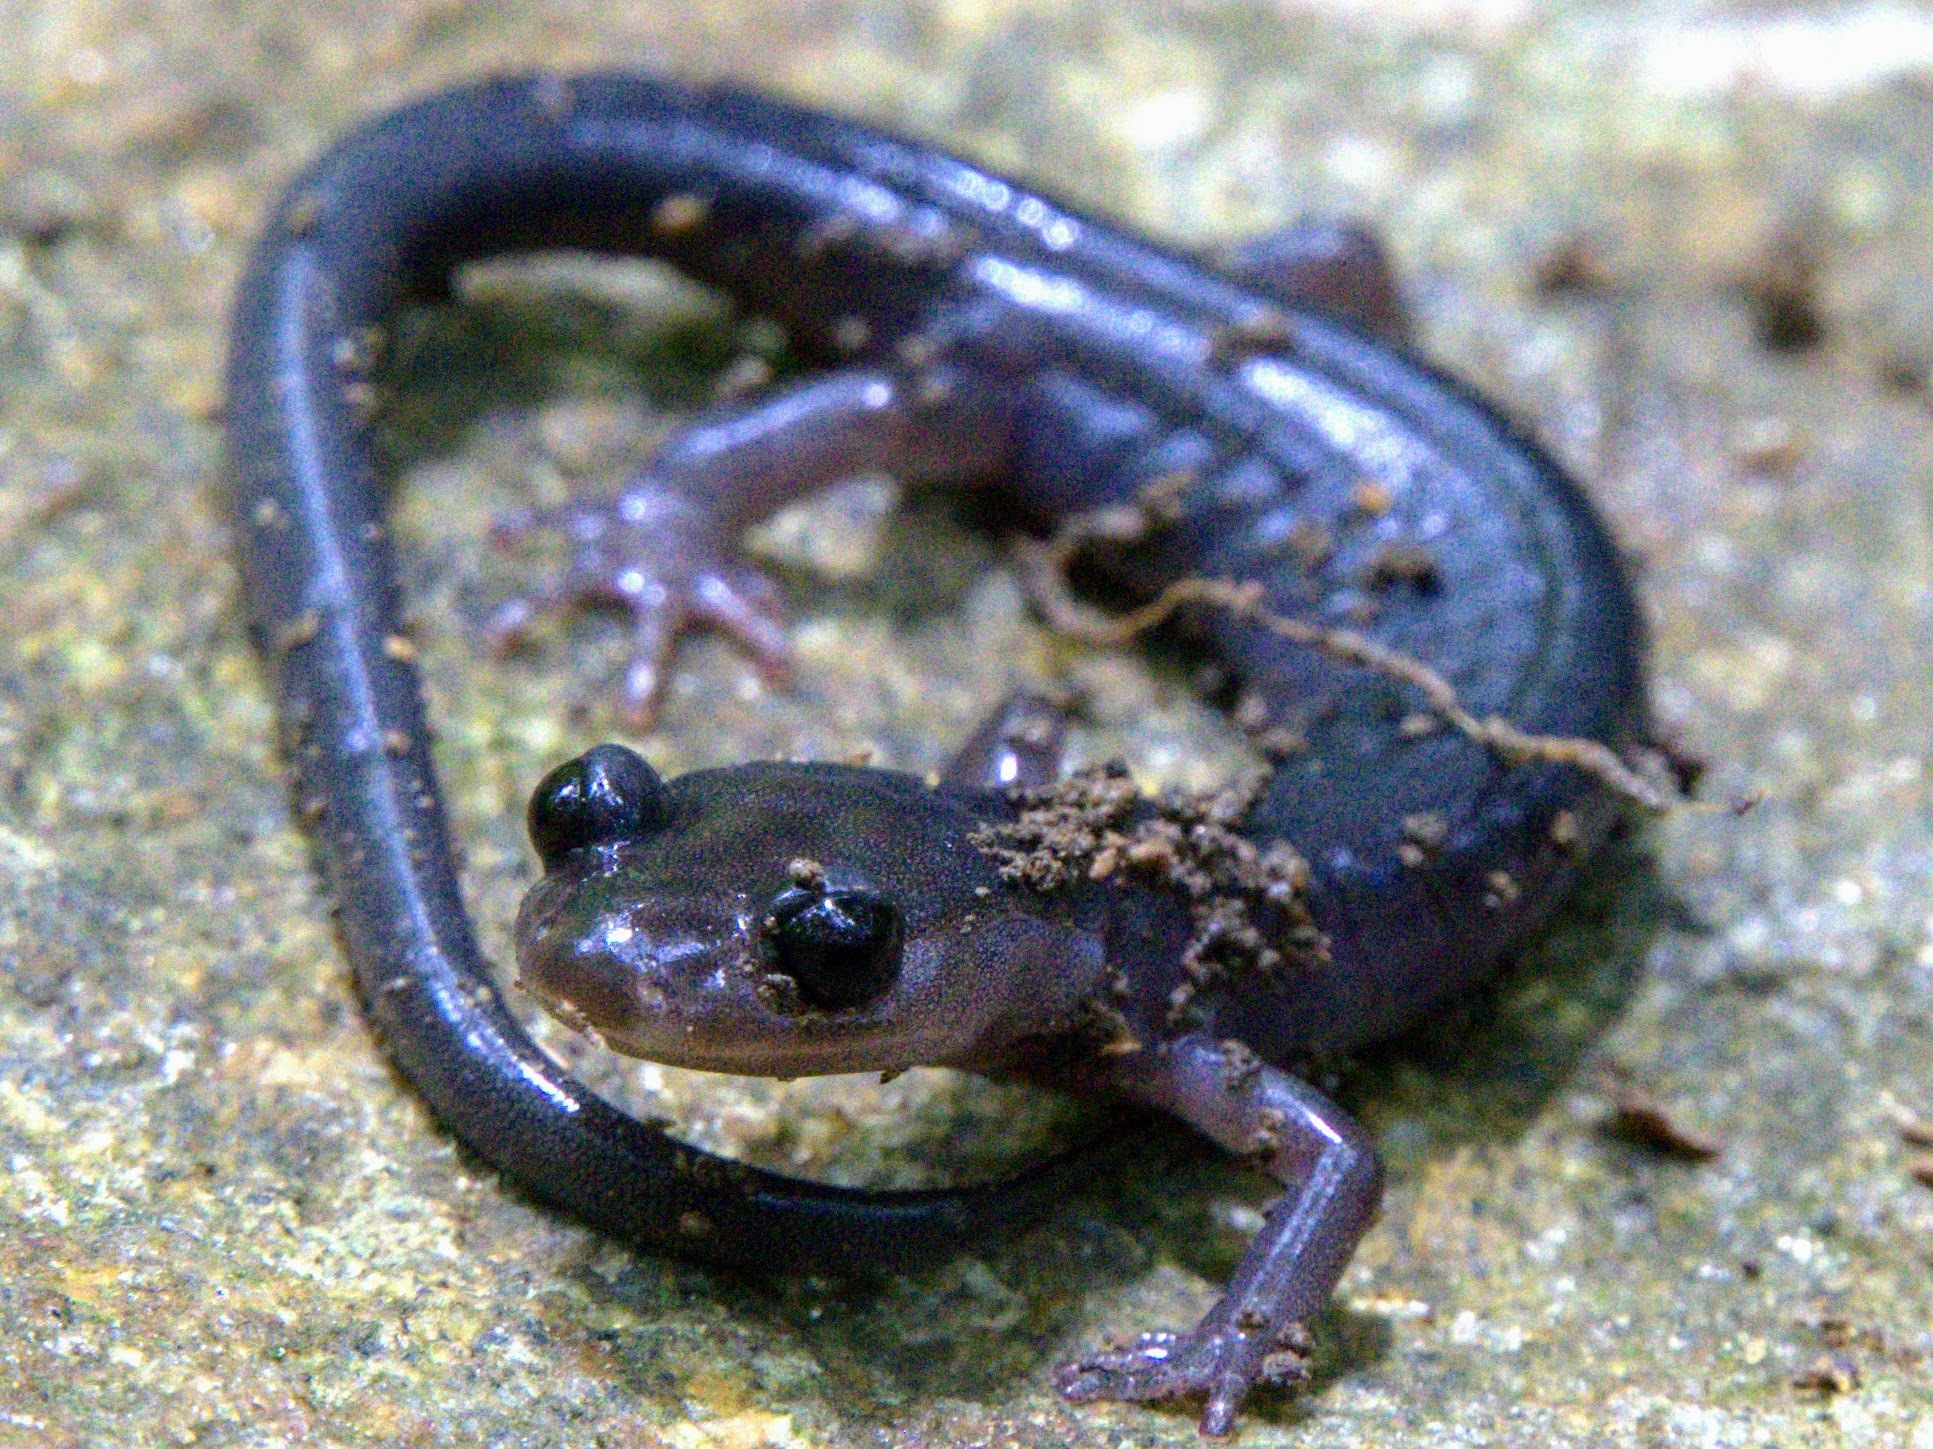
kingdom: Animalia
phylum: Chordata
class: Amphibia
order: Caudata
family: Plethodontidae
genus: Plethodon
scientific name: Plethodon metcalfi
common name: Southern gray-cheeked salamander
